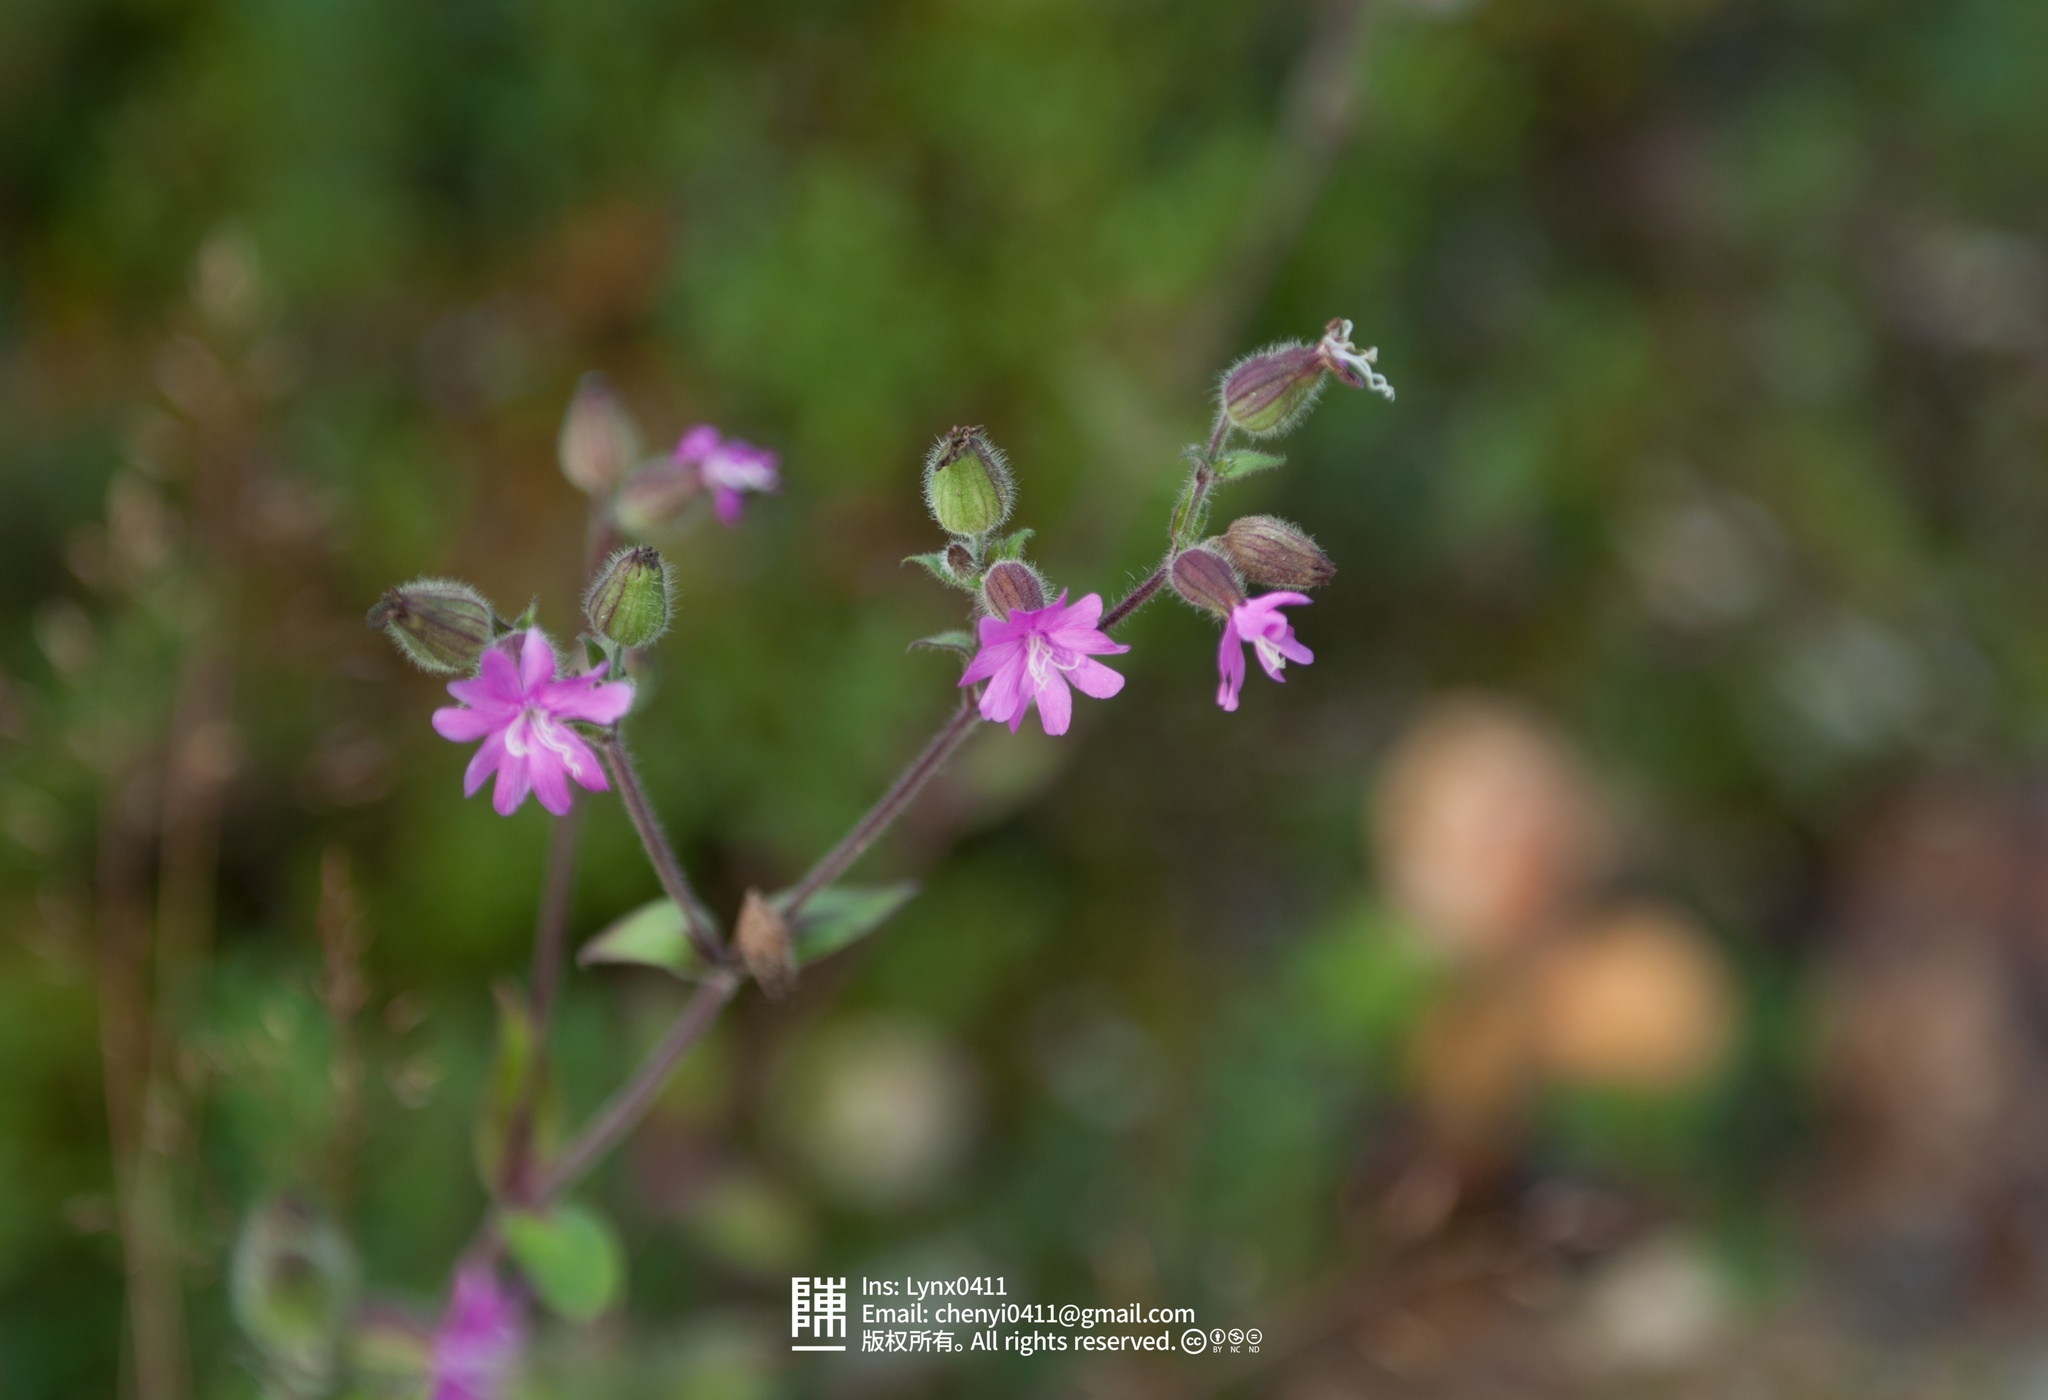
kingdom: Plantae
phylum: Tracheophyta
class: Magnoliopsida
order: Caryophyllales
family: Caryophyllaceae
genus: Silene
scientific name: Silene dioica
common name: Red campion
